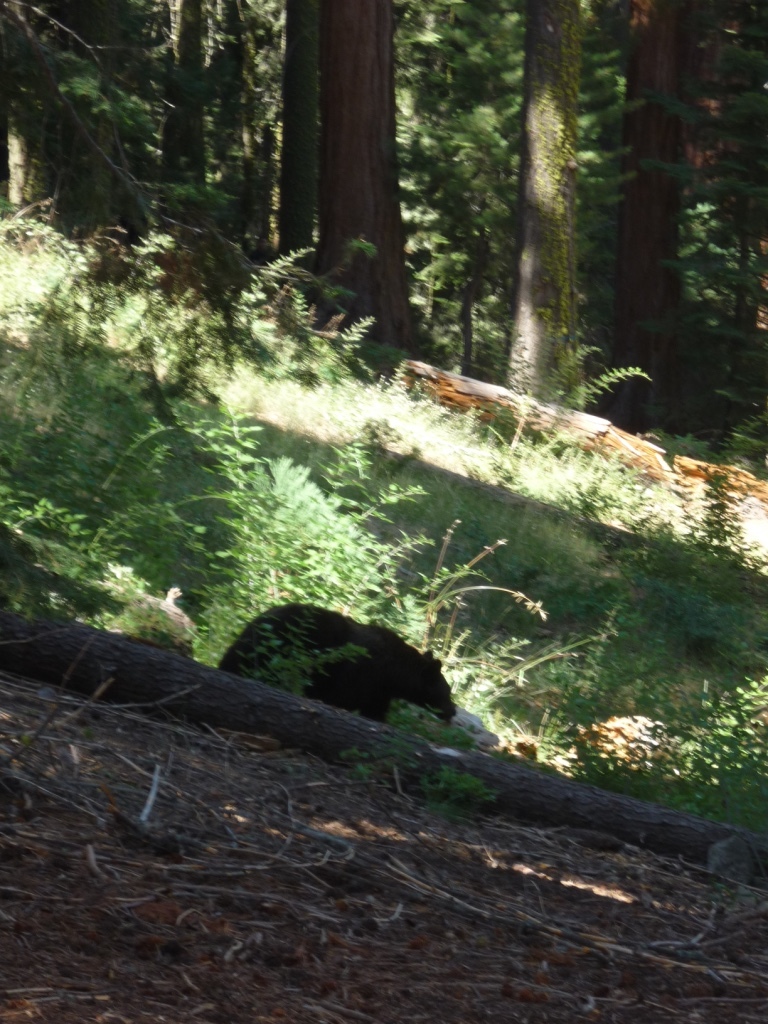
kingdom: Animalia
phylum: Chordata
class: Mammalia
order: Carnivora
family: Ursidae
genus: Ursus
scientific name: Ursus americanus
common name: American black bear
